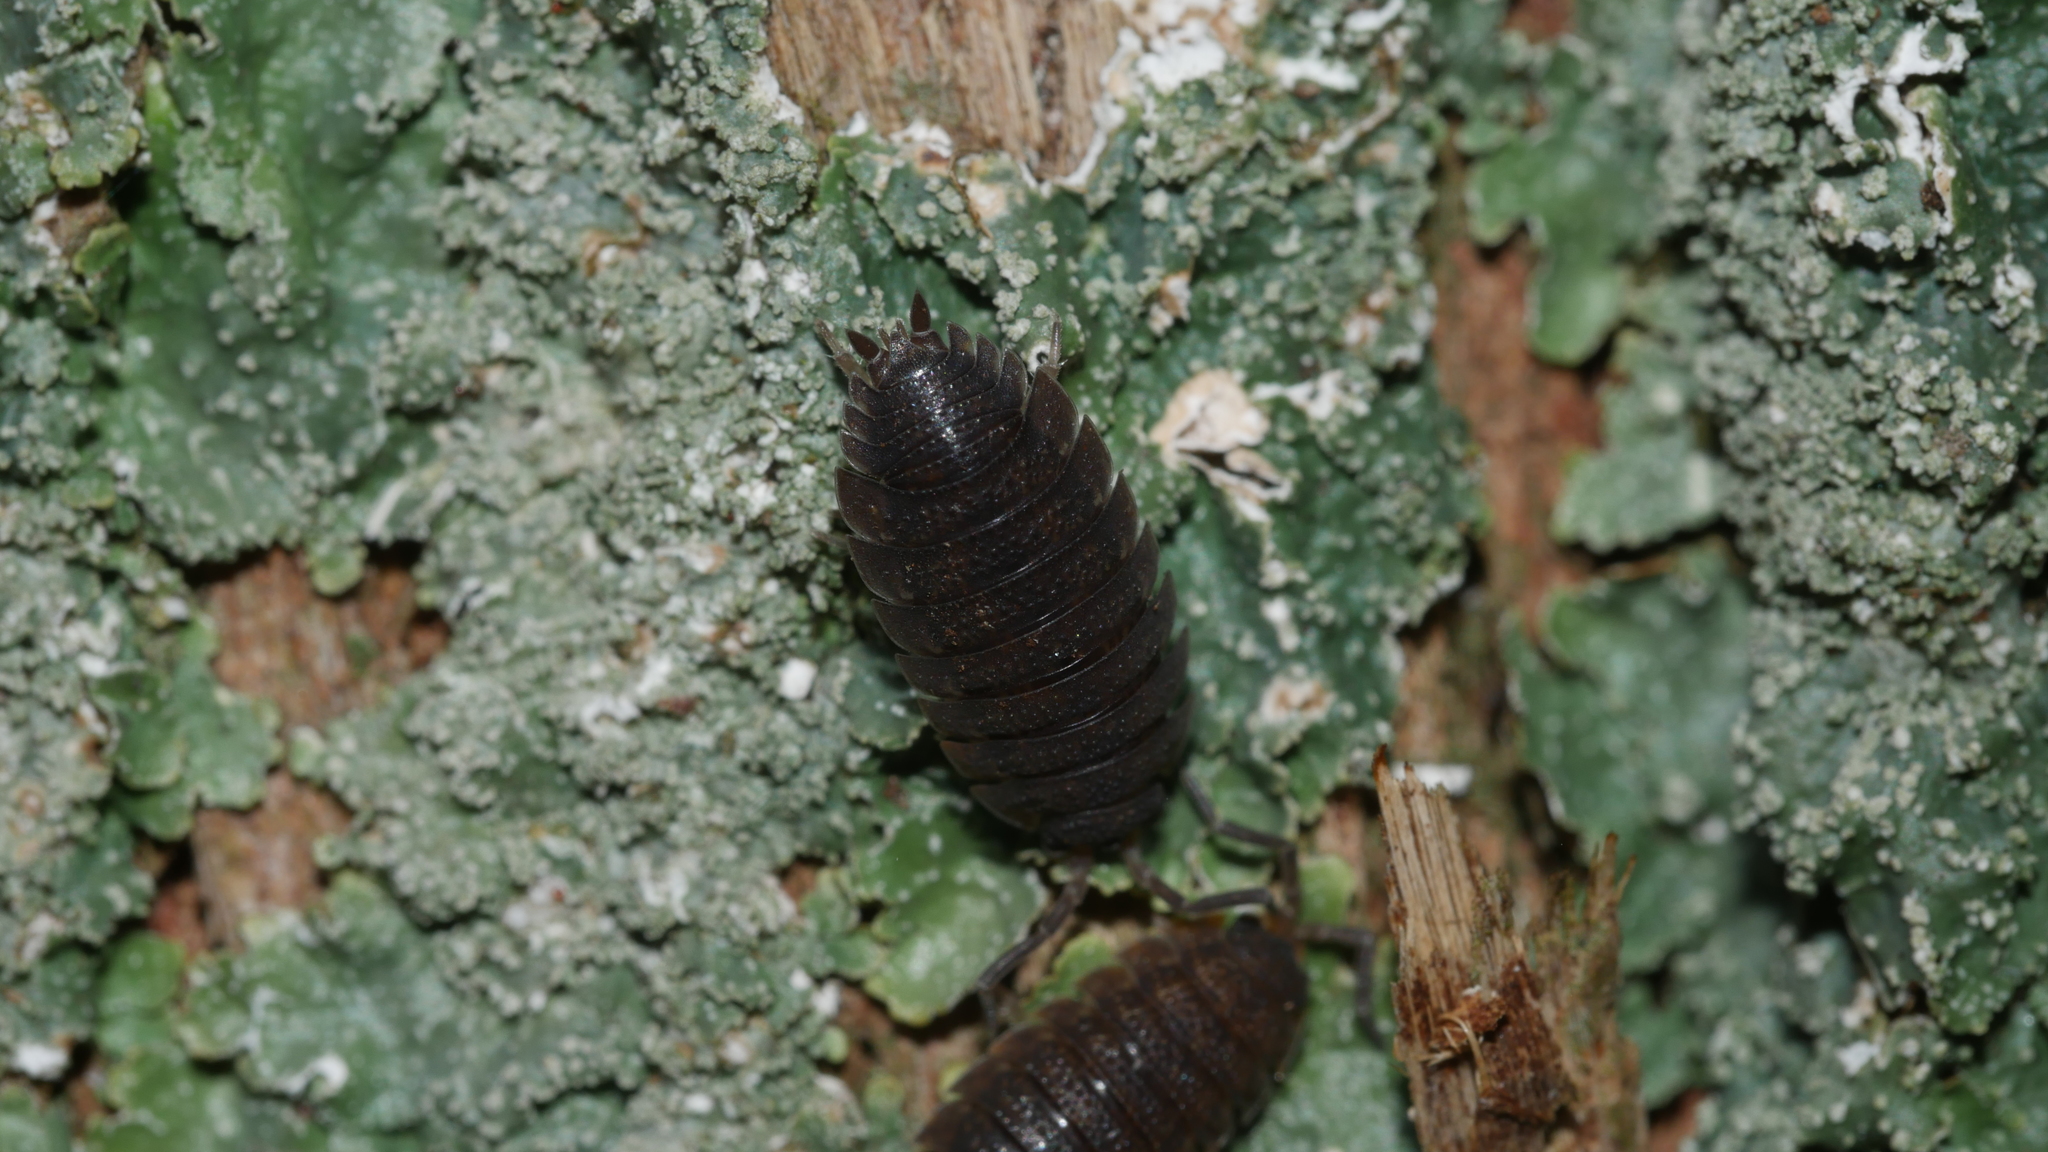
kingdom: Animalia
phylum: Arthropoda
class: Malacostraca
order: Isopoda
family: Porcellionidae
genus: Porcellio
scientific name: Porcellio scaber
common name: Common rough woodlouse
